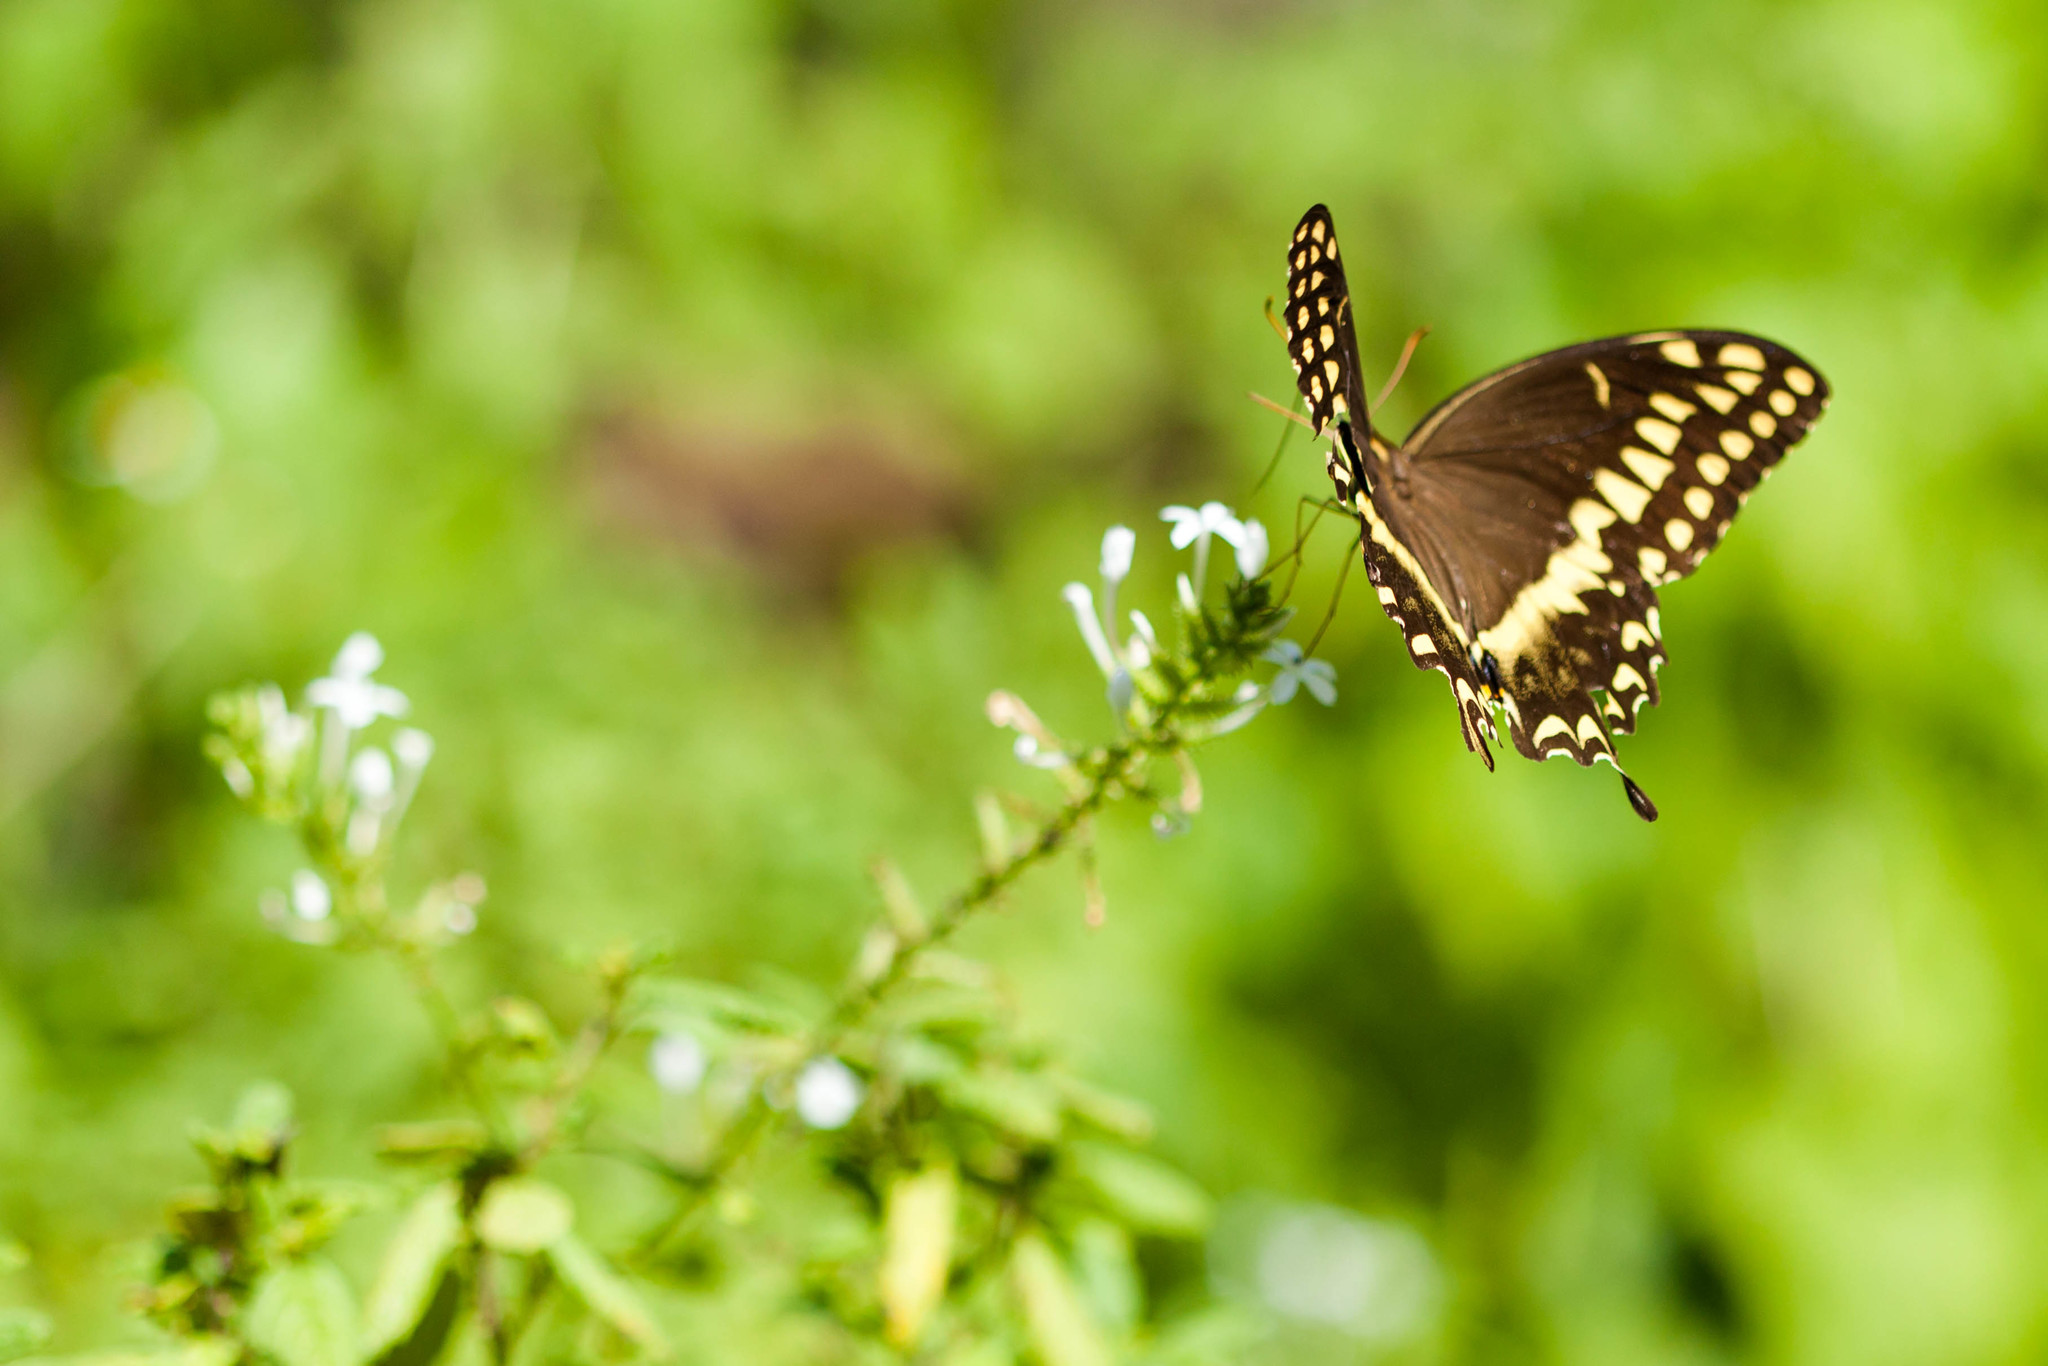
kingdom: Animalia
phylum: Arthropoda
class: Insecta
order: Lepidoptera
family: Papilionidae
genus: Papilio
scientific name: Papilio palamedes
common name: Palamedes swallowtail
